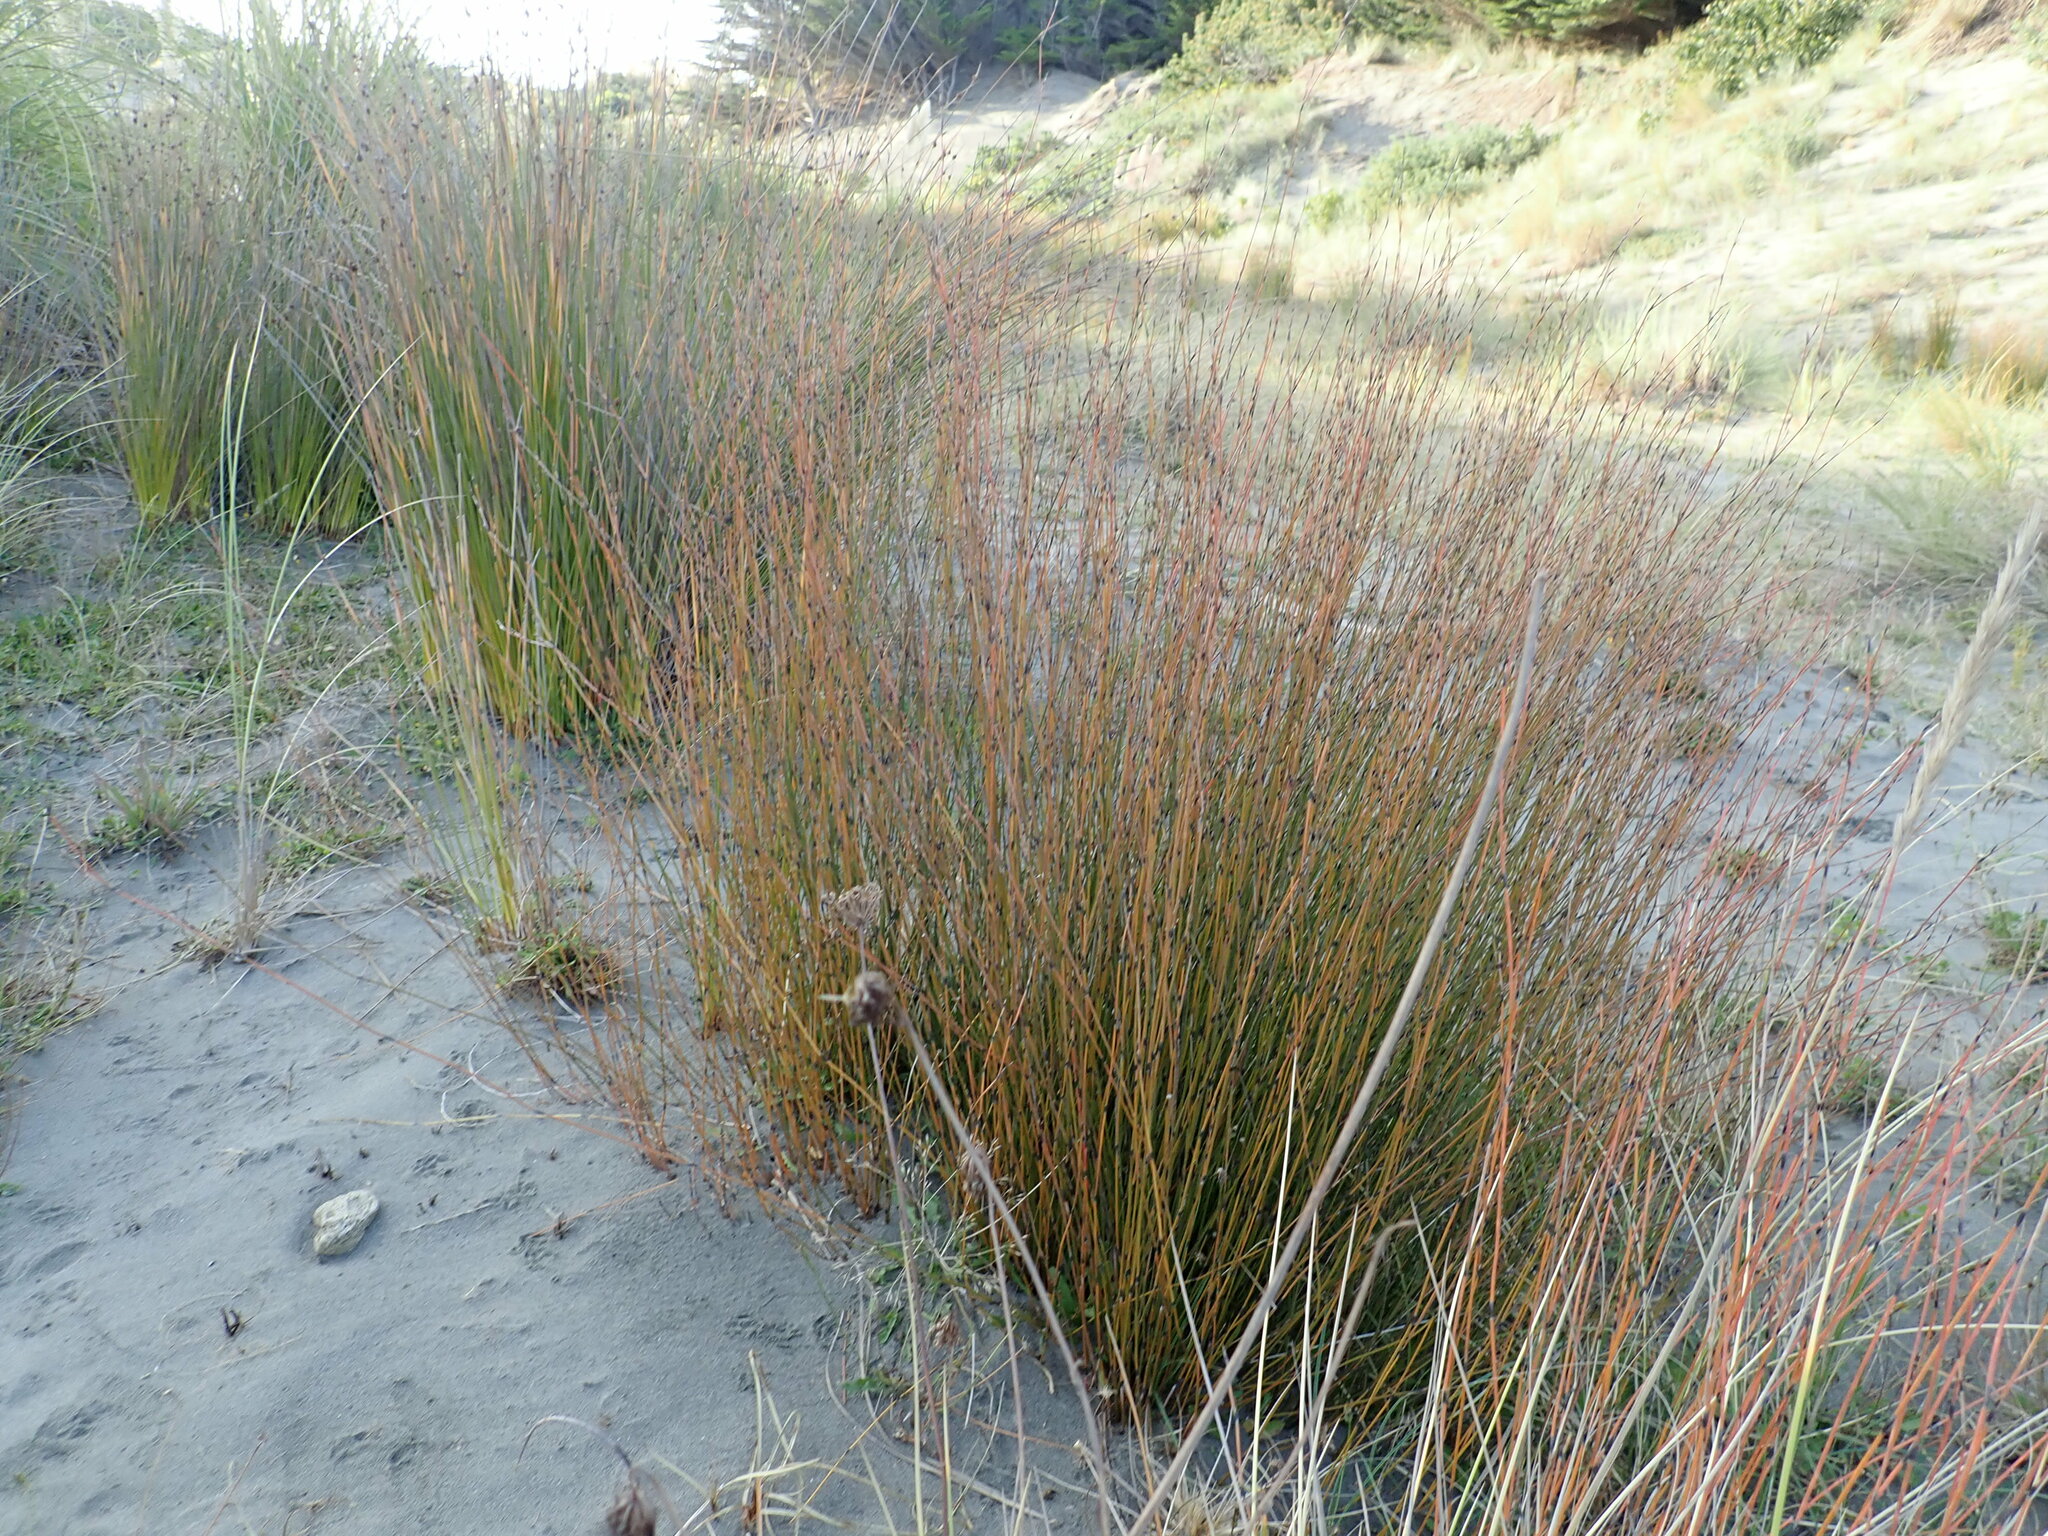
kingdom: Plantae
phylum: Tracheophyta
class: Liliopsida
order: Poales
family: Restionaceae
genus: Apodasmia
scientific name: Apodasmia similis
